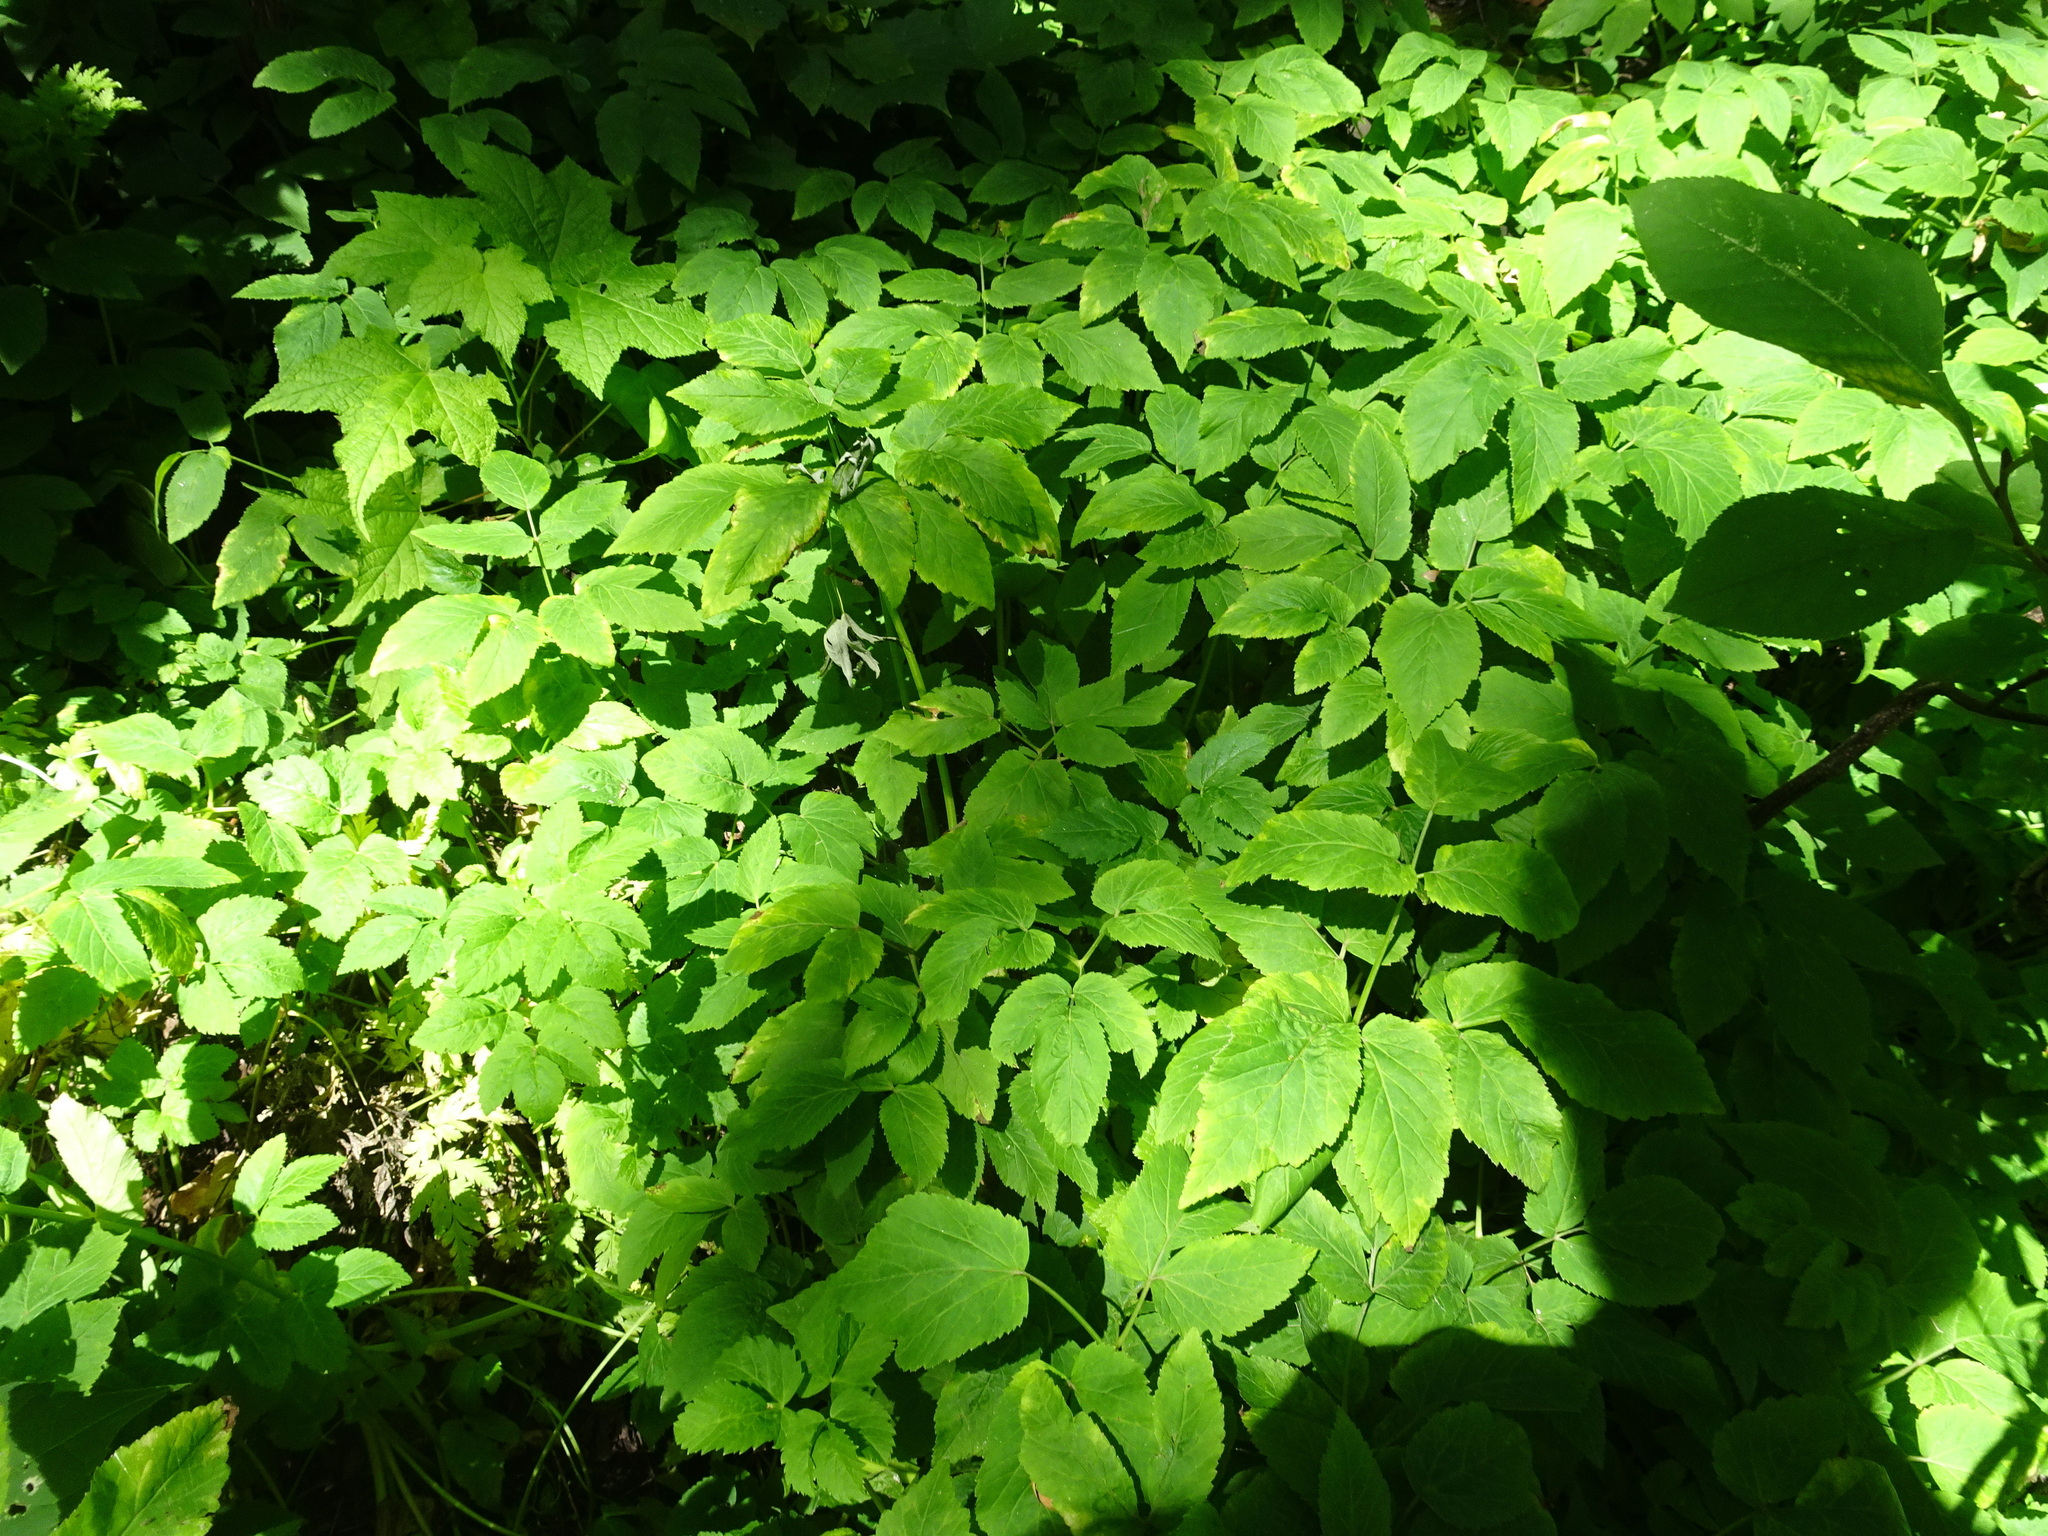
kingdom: Plantae
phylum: Tracheophyta
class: Magnoliopsida
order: Apiales
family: Apiaceae
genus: Aegopodium
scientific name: Aegopodium podagraria
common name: Ground-elder
